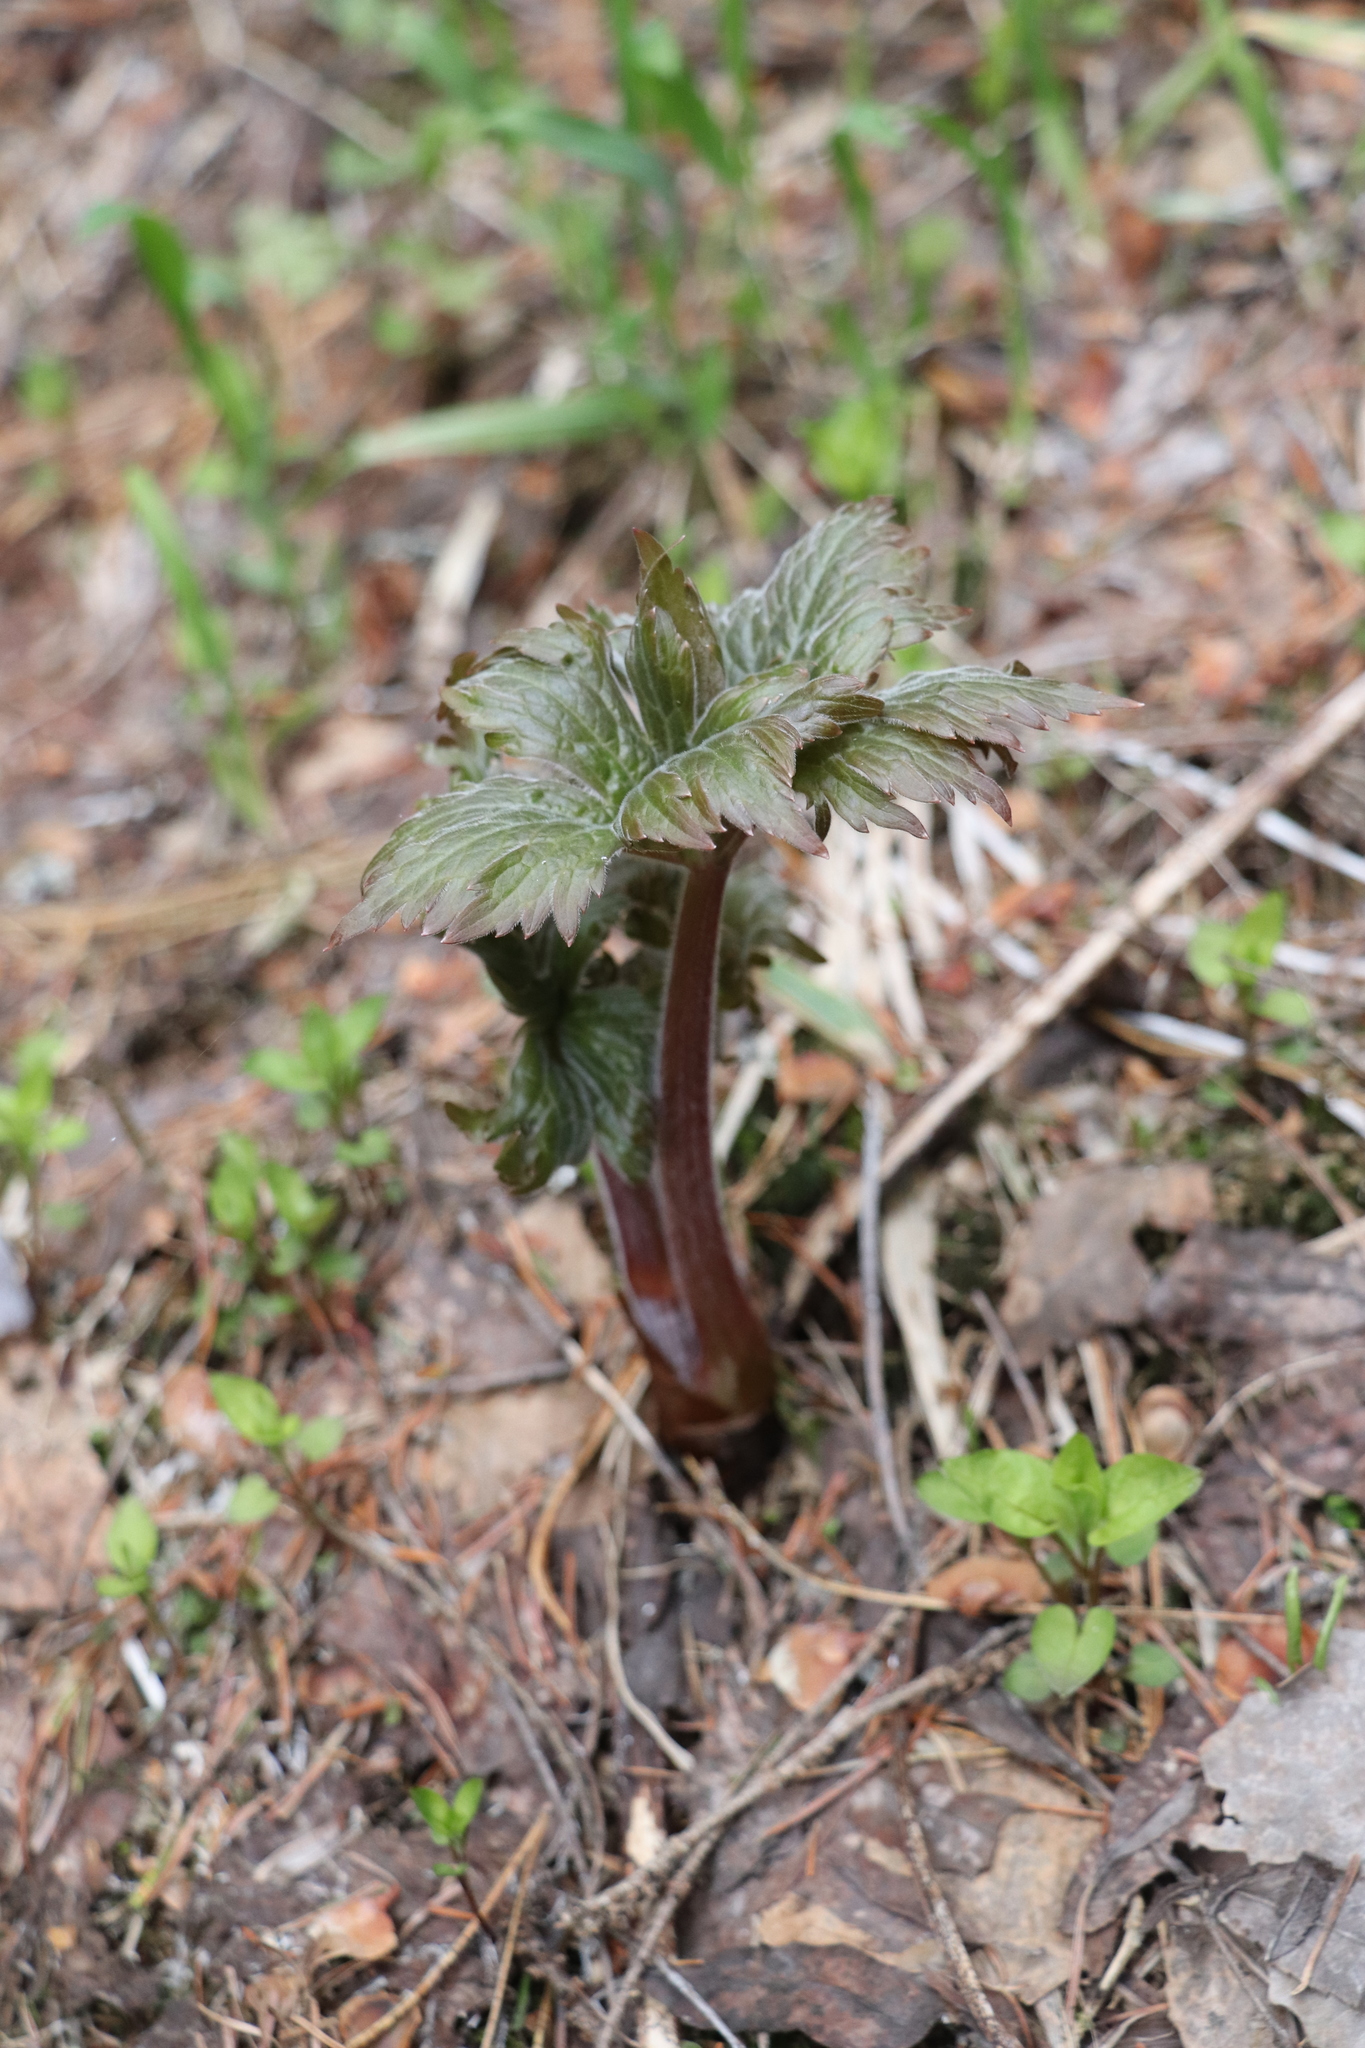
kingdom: Plantae
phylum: Tracheophyta
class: Magnoliopsida
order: Ranunculales
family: Ranunculaceae
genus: Aconitum
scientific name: Aconitum septentrionale
